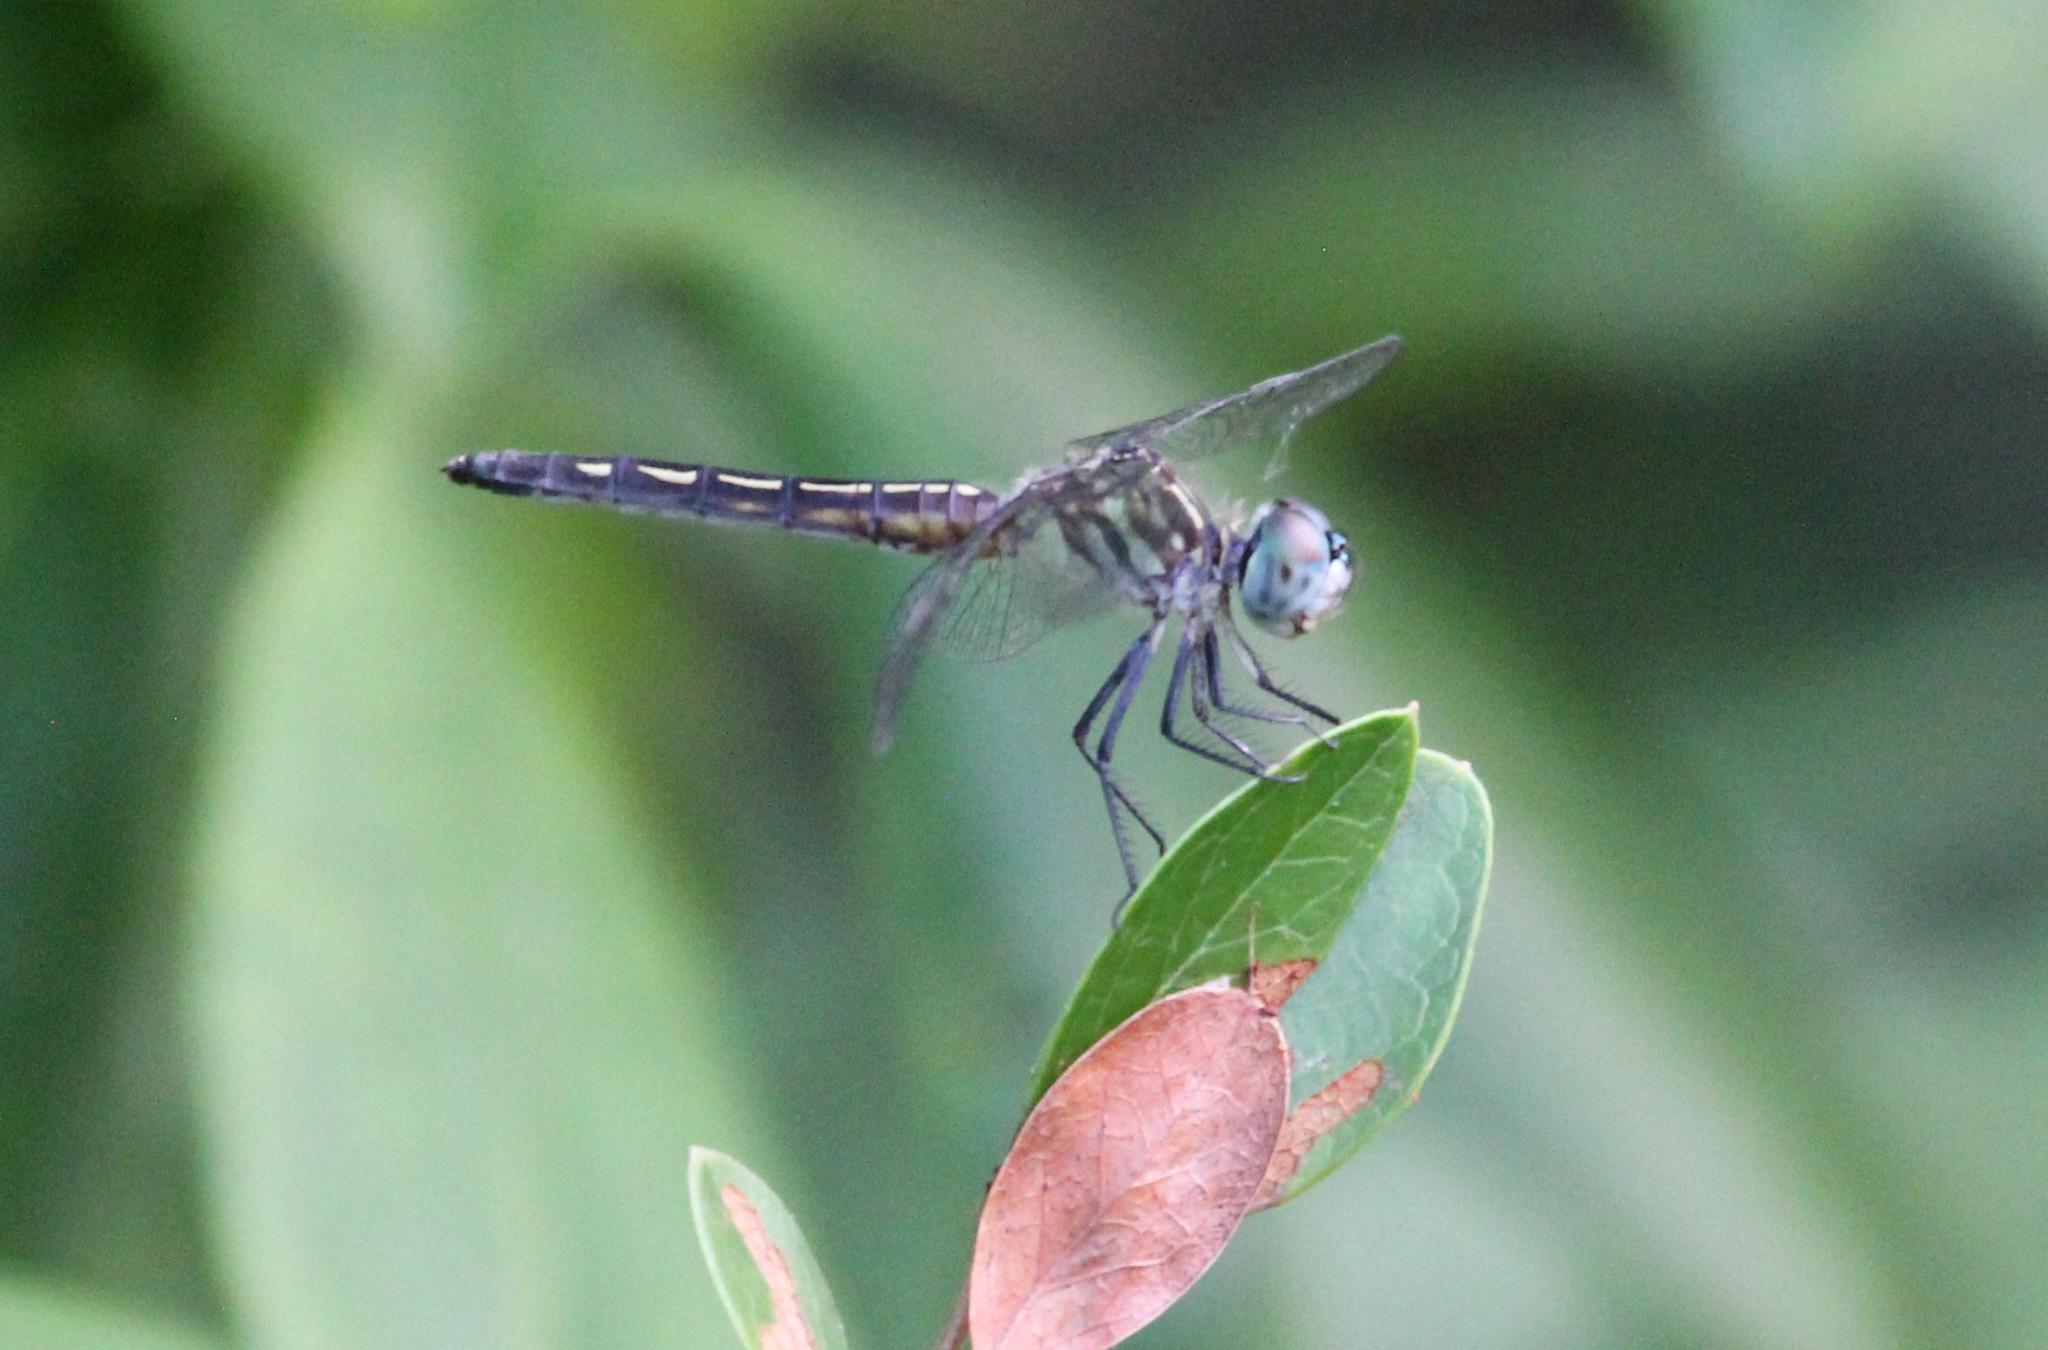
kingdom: Animalia
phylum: Arthropoda
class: Insecta
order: Odonata
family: Libellulidae
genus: Pachydiplax
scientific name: Pachydiplax longipennis
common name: Blue dasher
